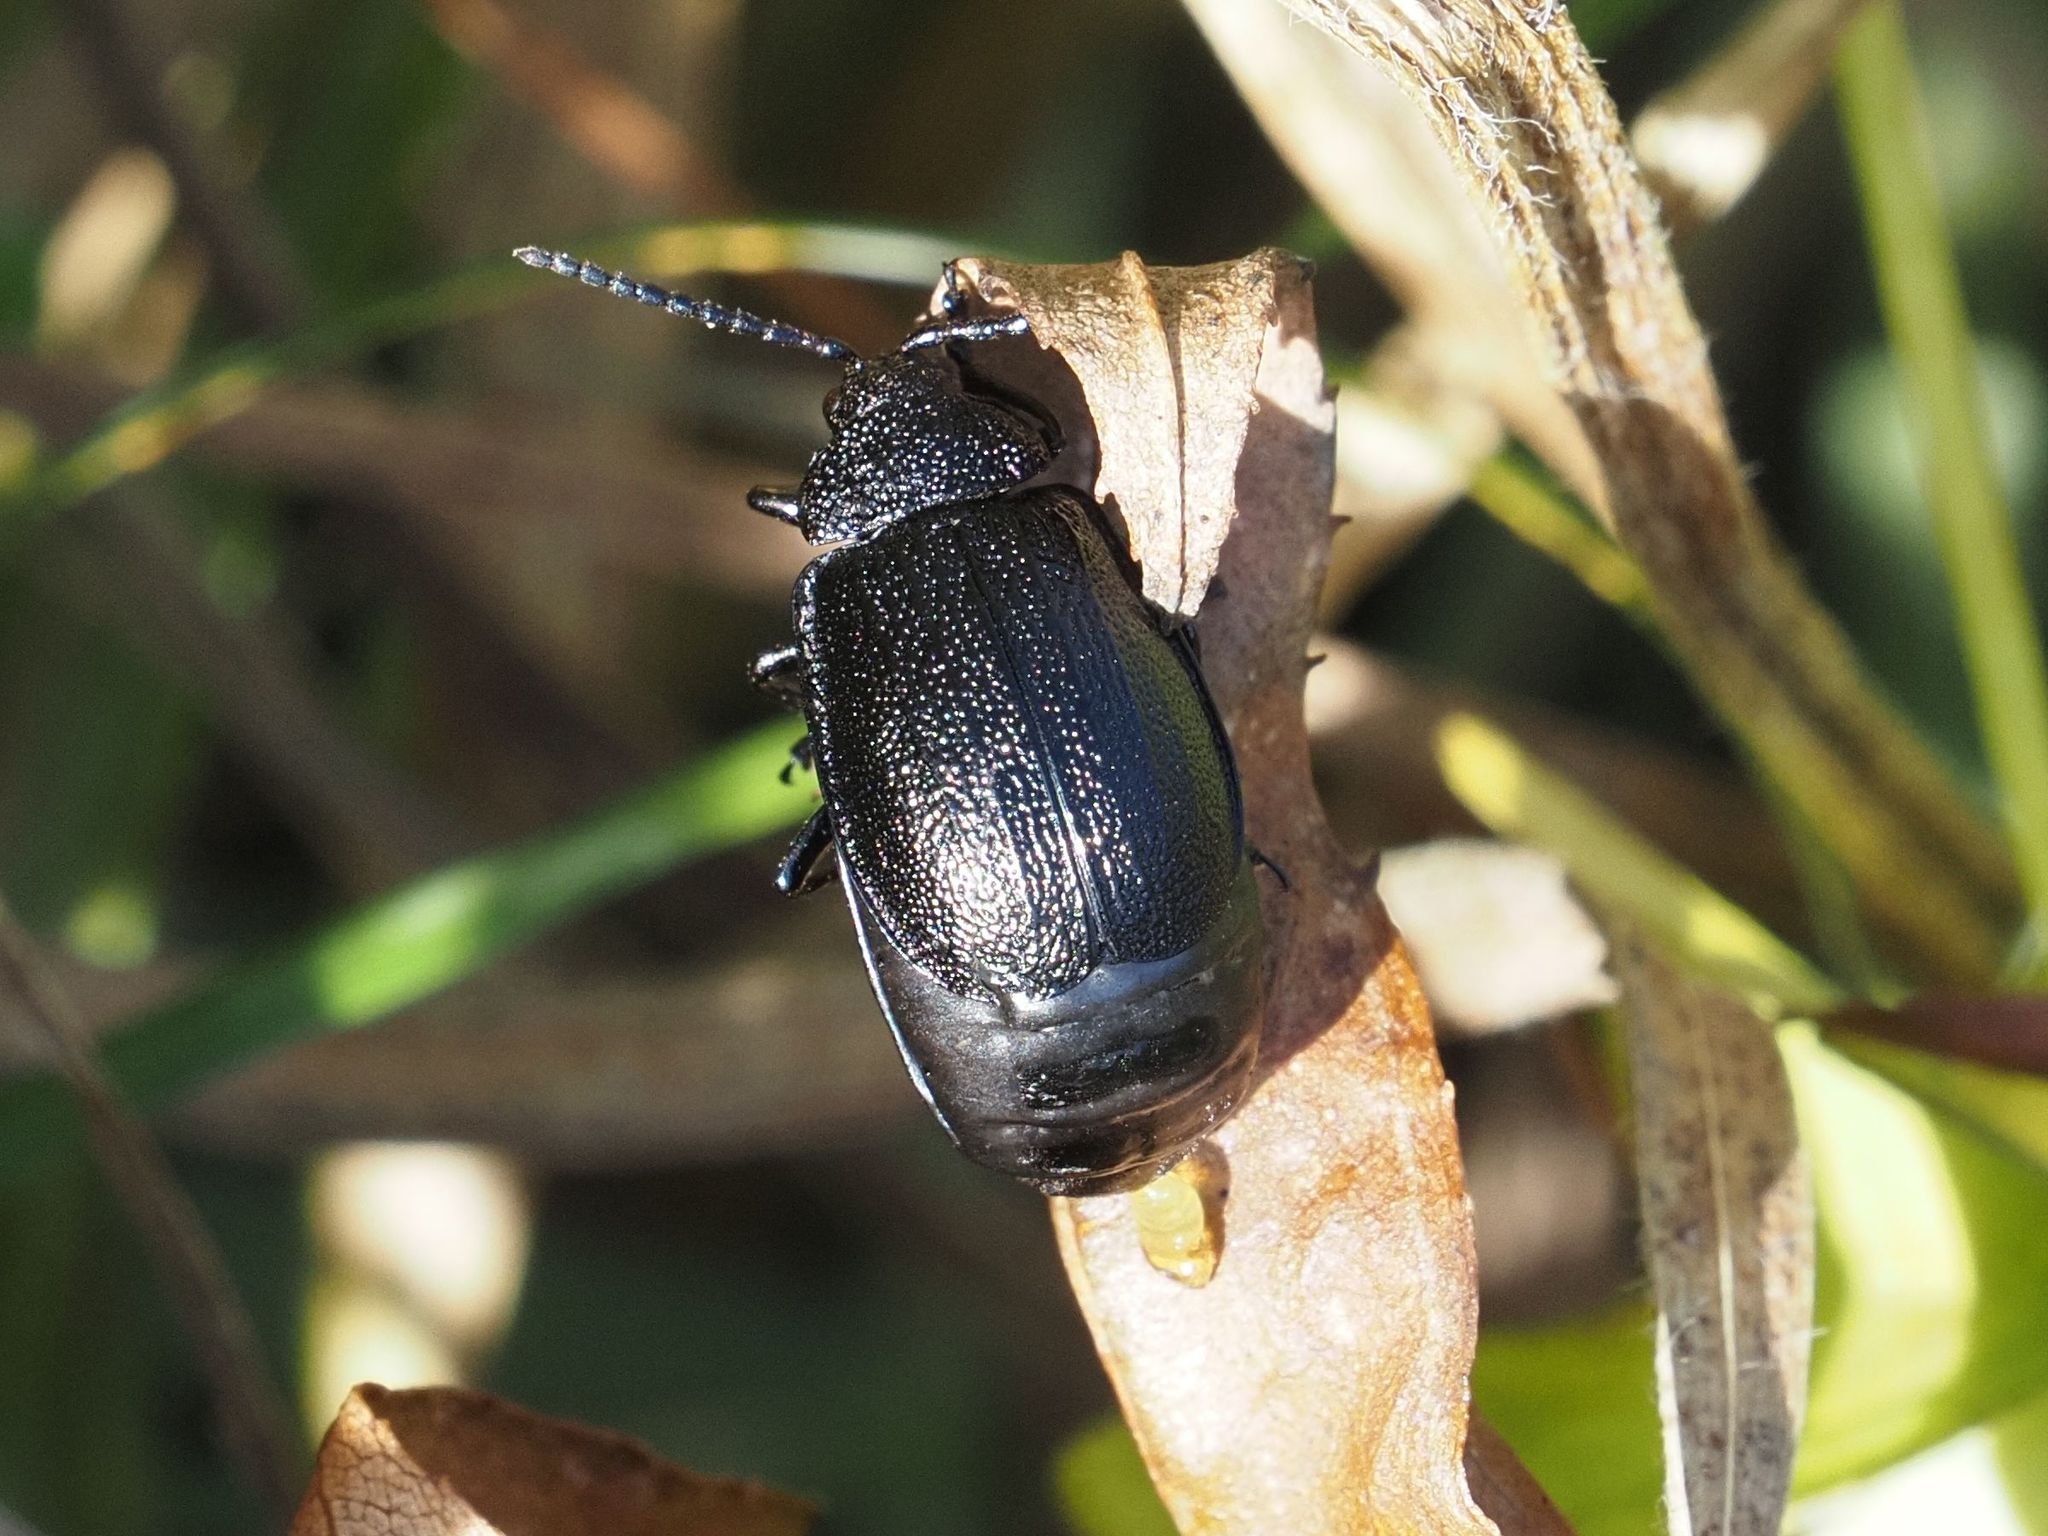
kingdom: Animalia
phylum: Arthropoda
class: Insecta
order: Coleoptera
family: Chrysomelidae
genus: Galeruca
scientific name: Galeruca tanaceti
